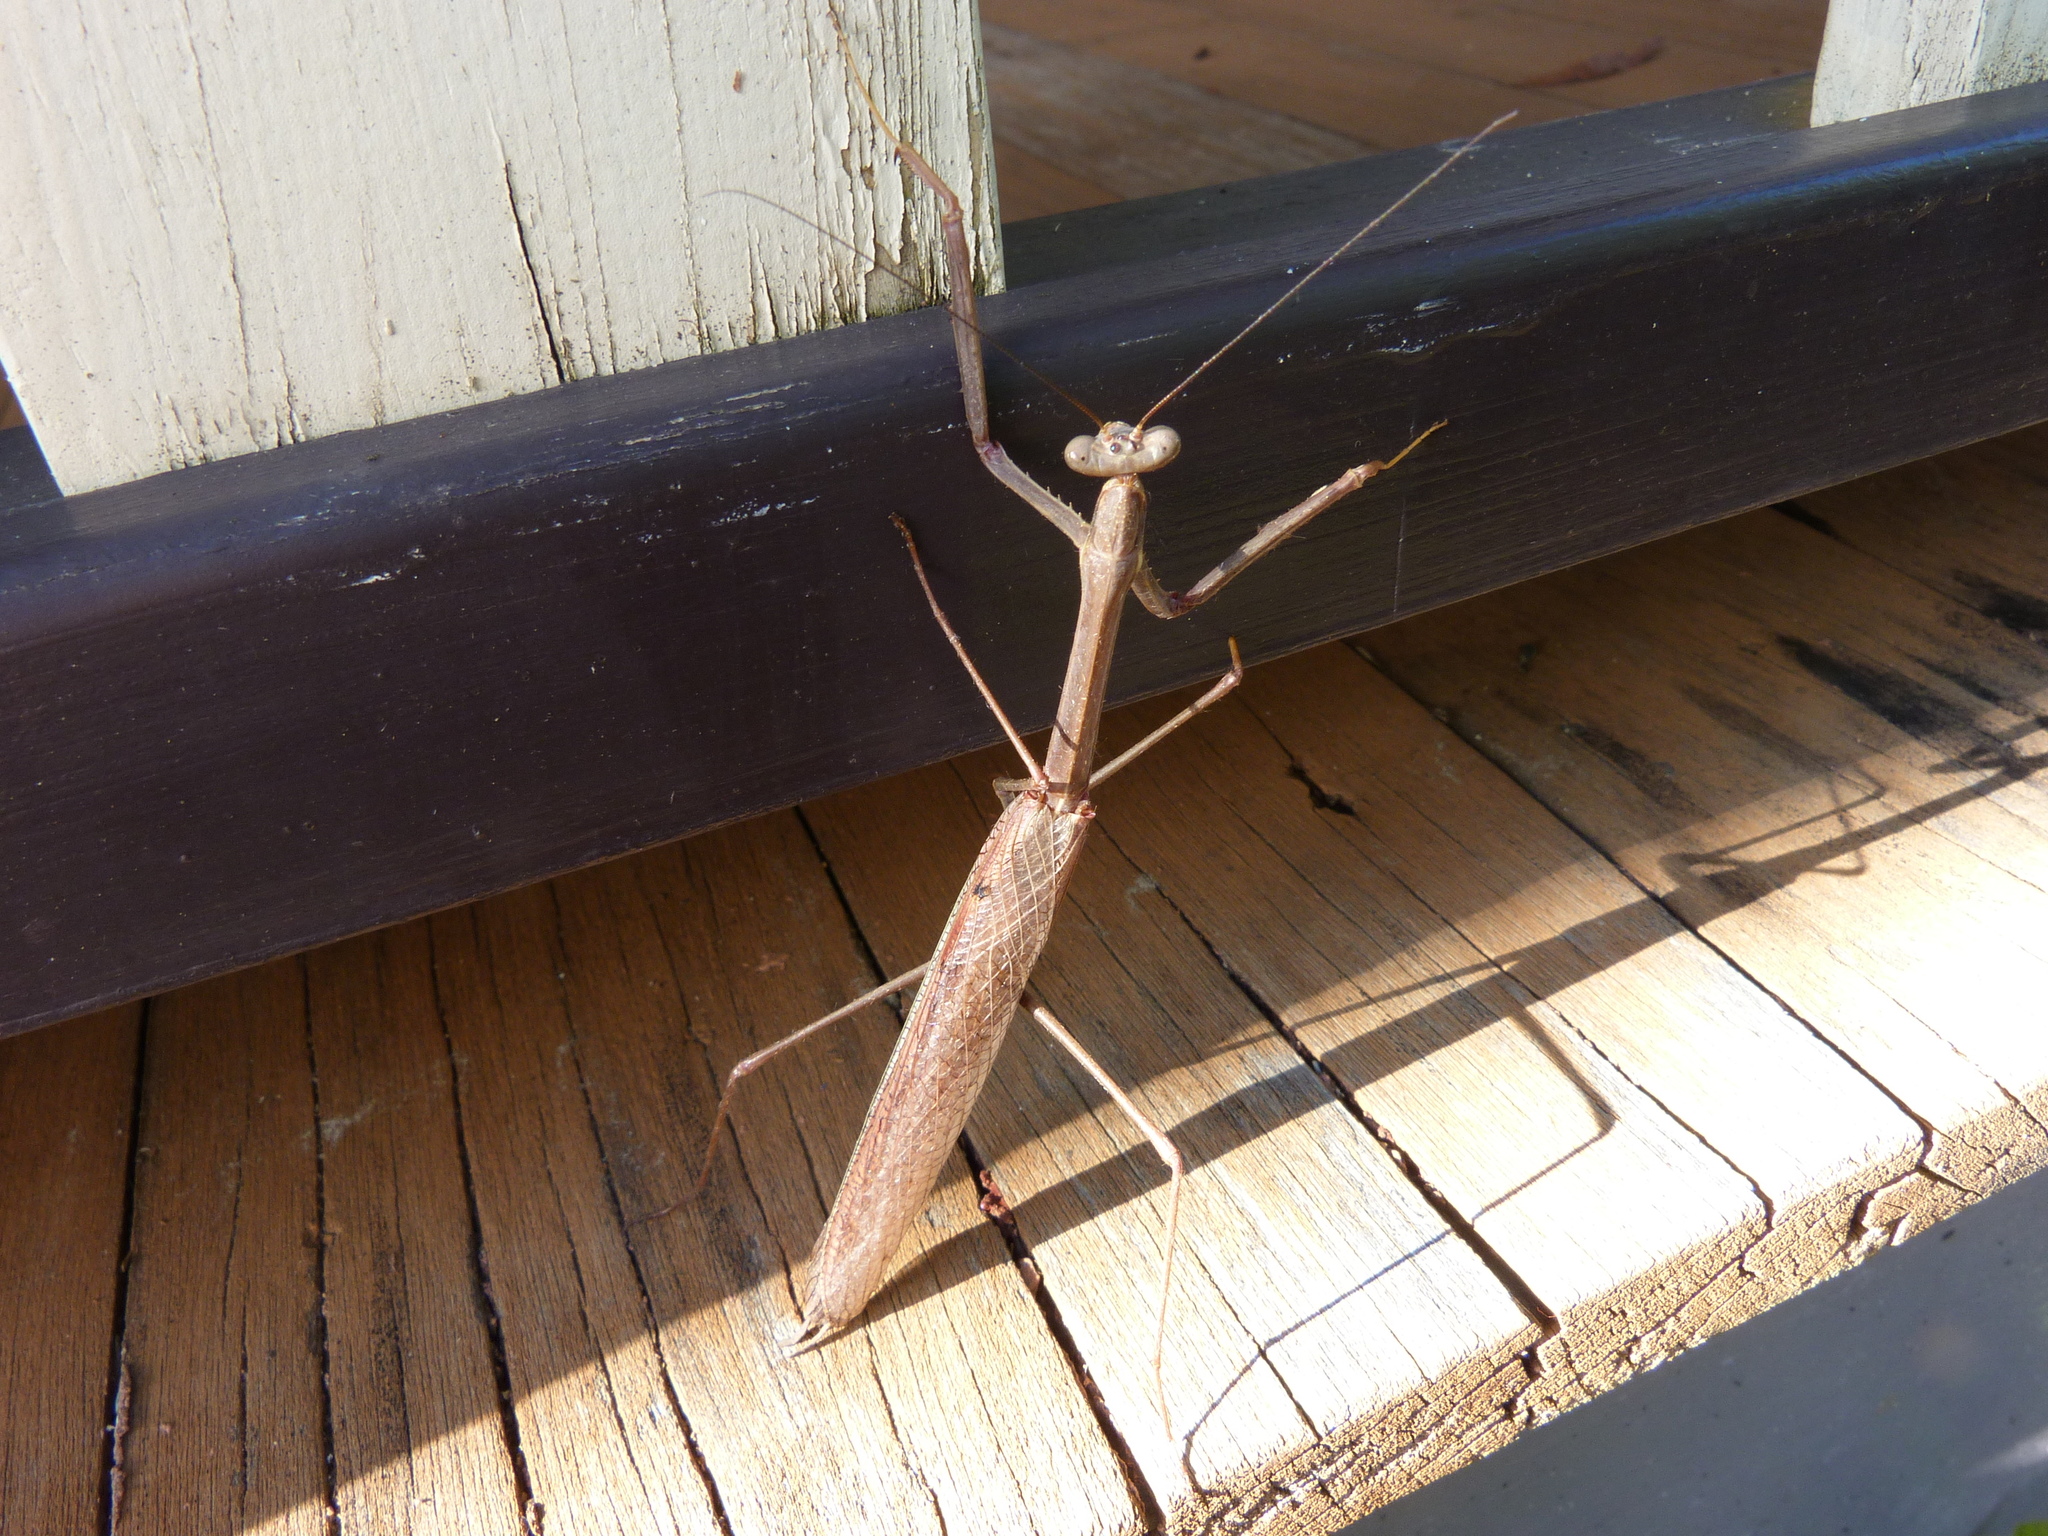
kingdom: Animalia
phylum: Arthropoda
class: Insecta
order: Mantodea
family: Mantidae
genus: Archimantis
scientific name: Archimantis latistyla
